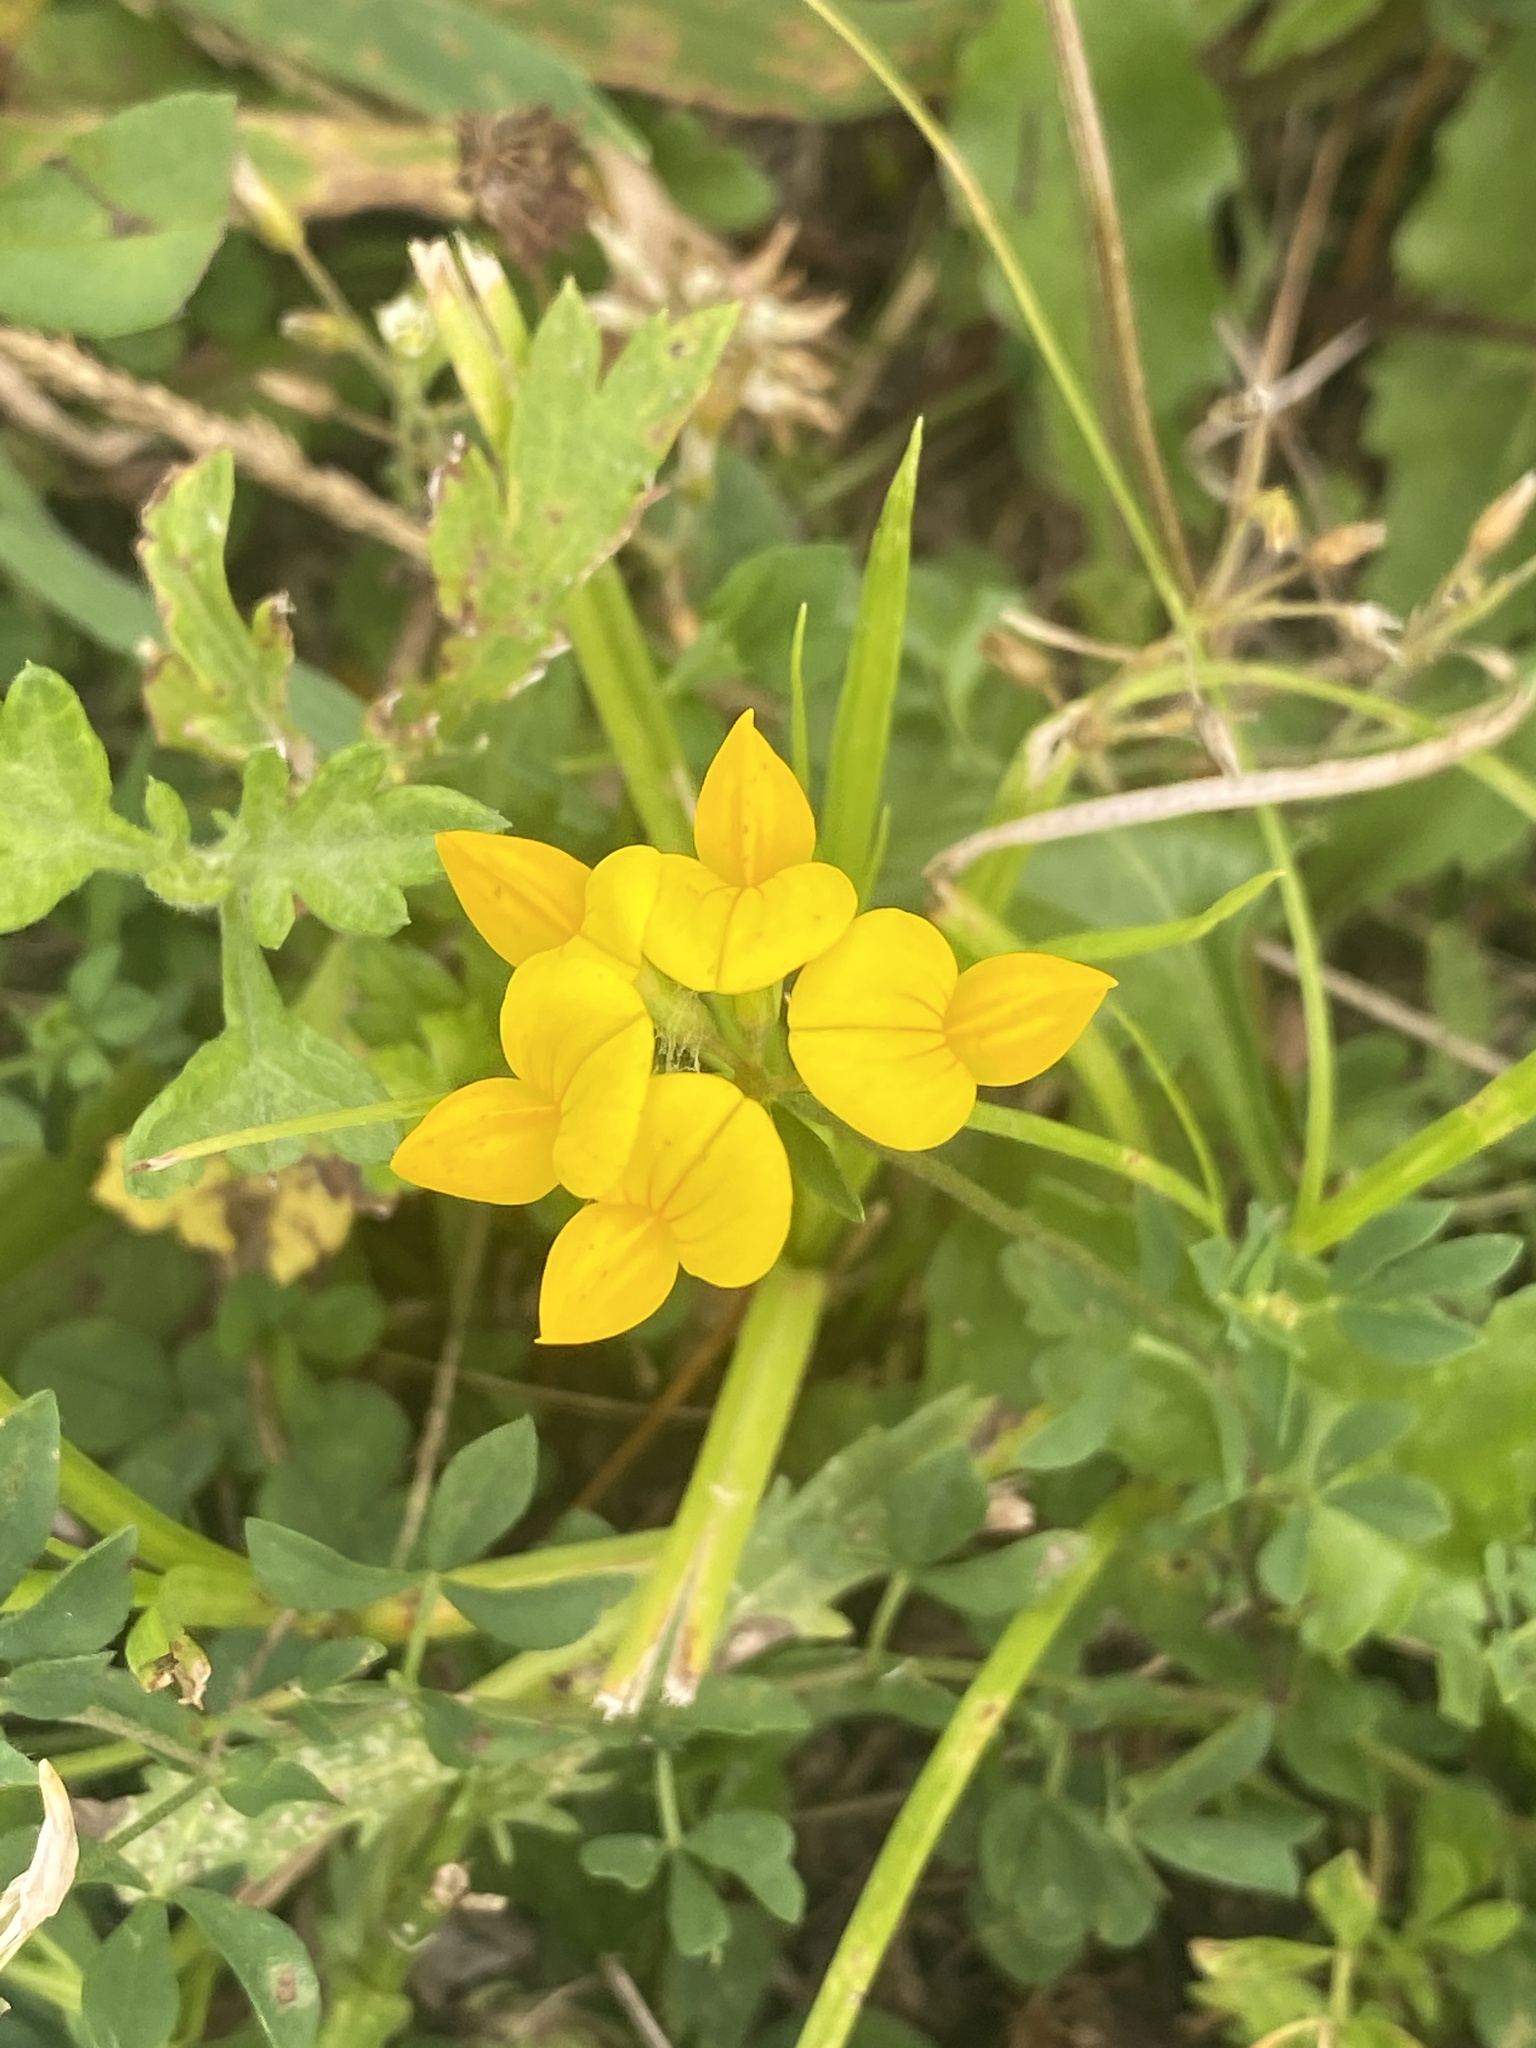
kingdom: Plantae
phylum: Tracheophyta
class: Magnoliopsida
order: Fabales
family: Fabaceae
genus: Lotus
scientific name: Lotus corniculatus
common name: Common bird's-foot-trefoil
